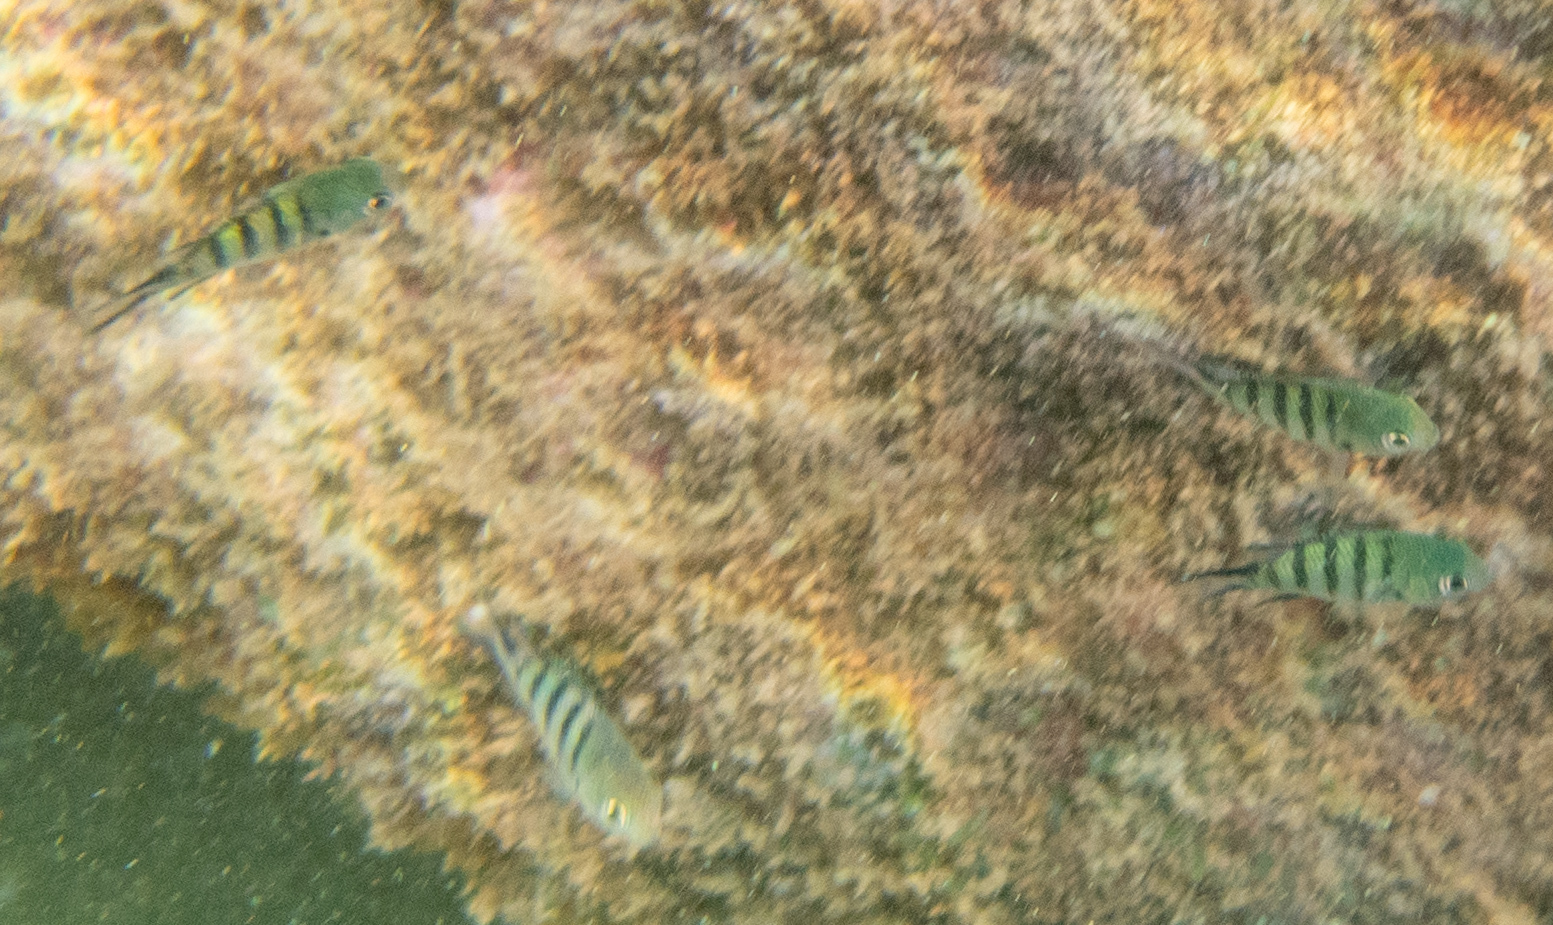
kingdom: Animalia
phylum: Chordata
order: Perciformes
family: Pomacentridae
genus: Abudefduf
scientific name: Abudefduf whitleyi
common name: Whitley's seargent
